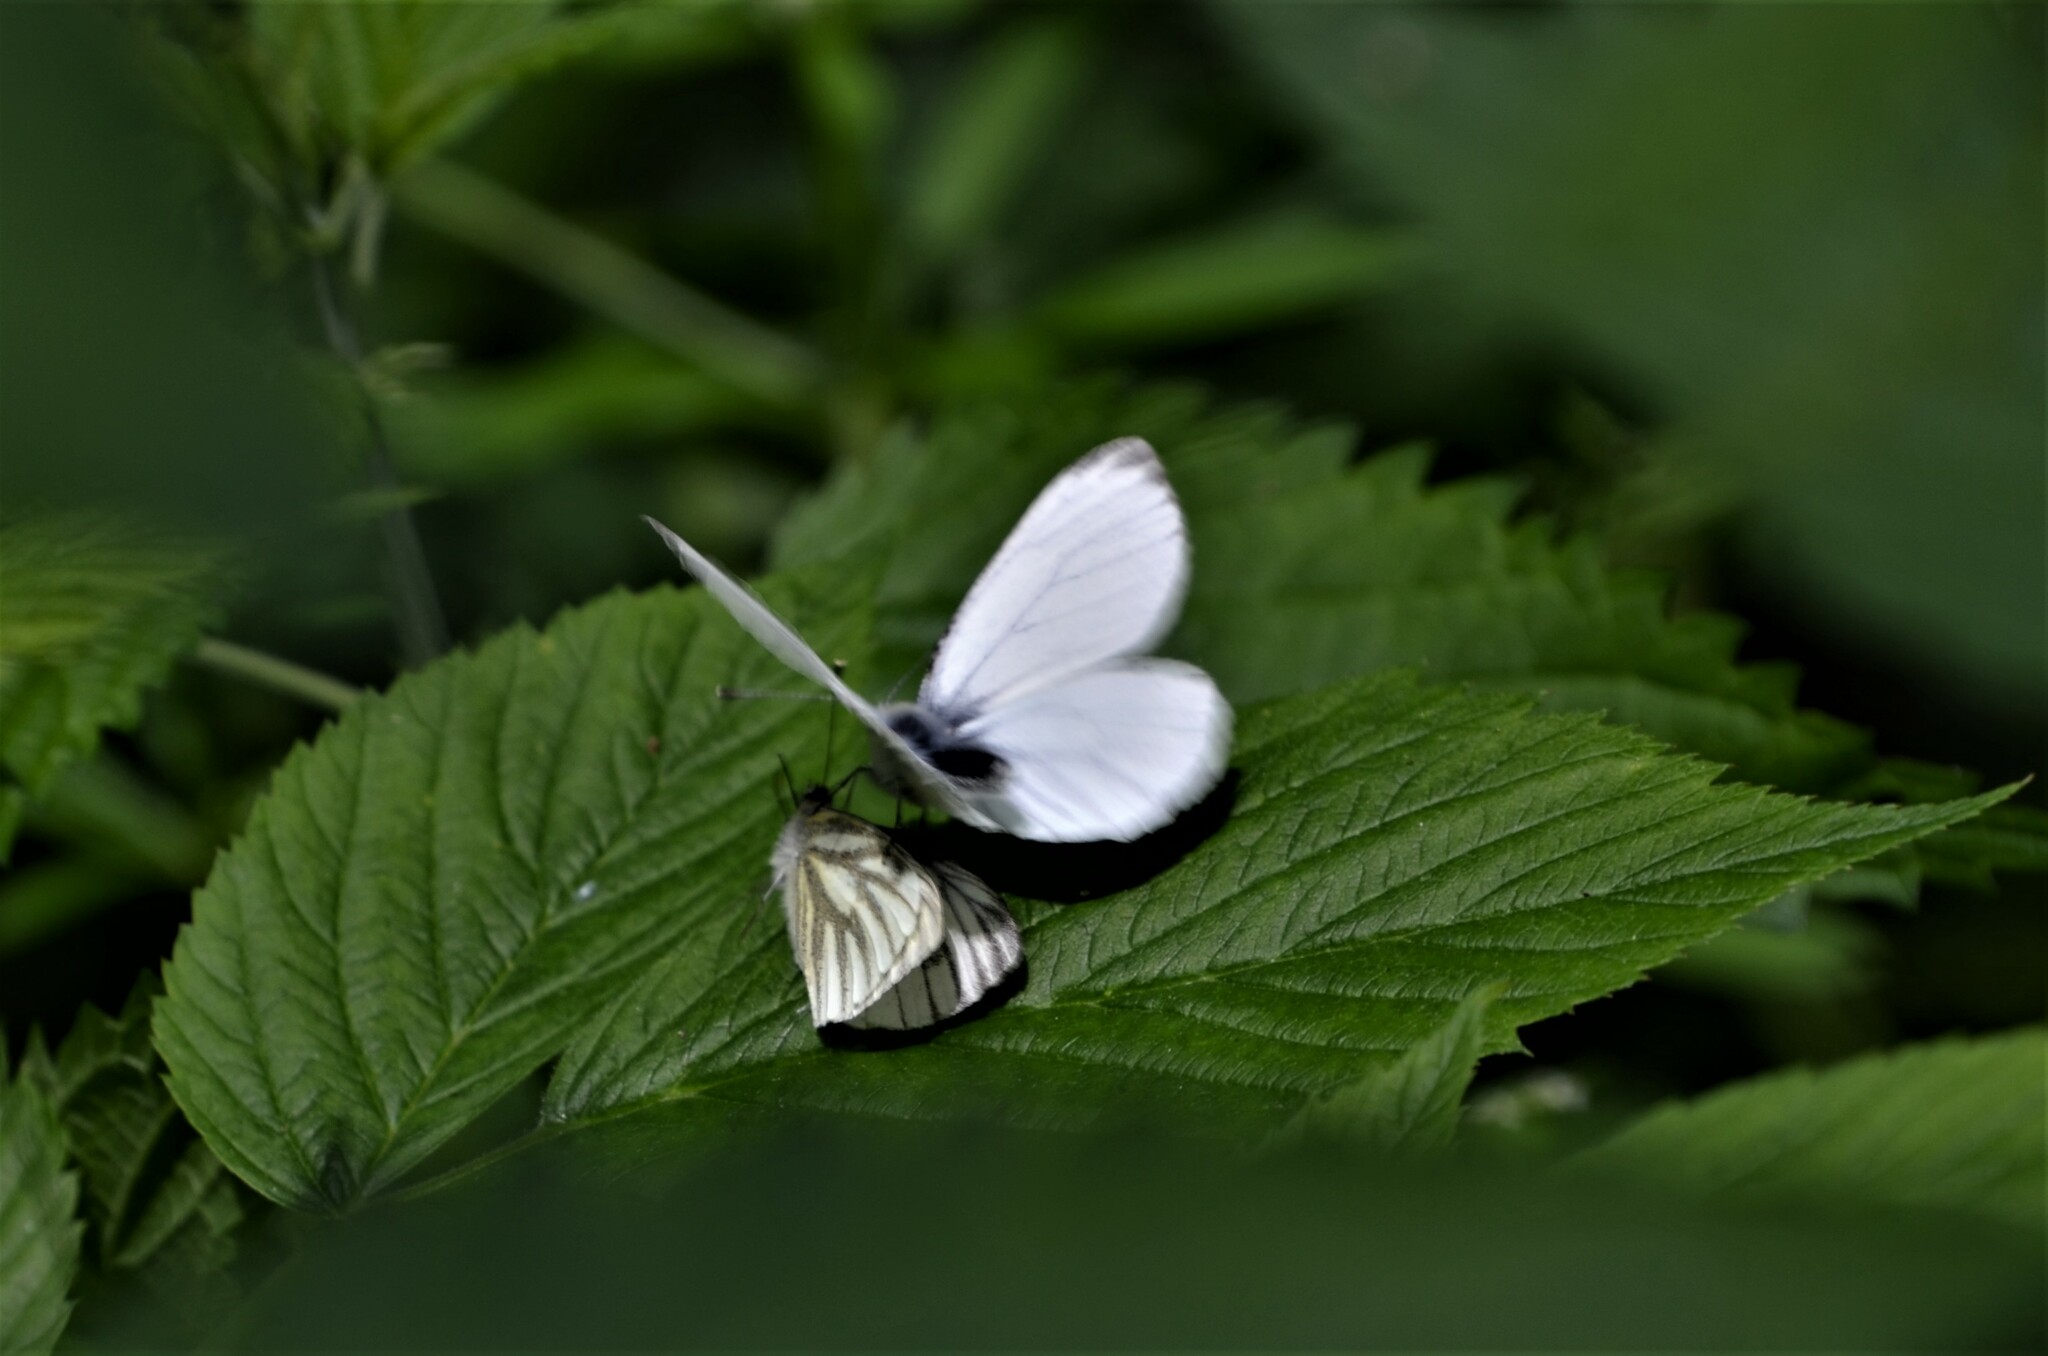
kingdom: Animalia
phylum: Arthropoda
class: Insecta
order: Lepidoptera
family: Pieridae
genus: Pieris
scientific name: Pieris napi
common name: Green-veined white
